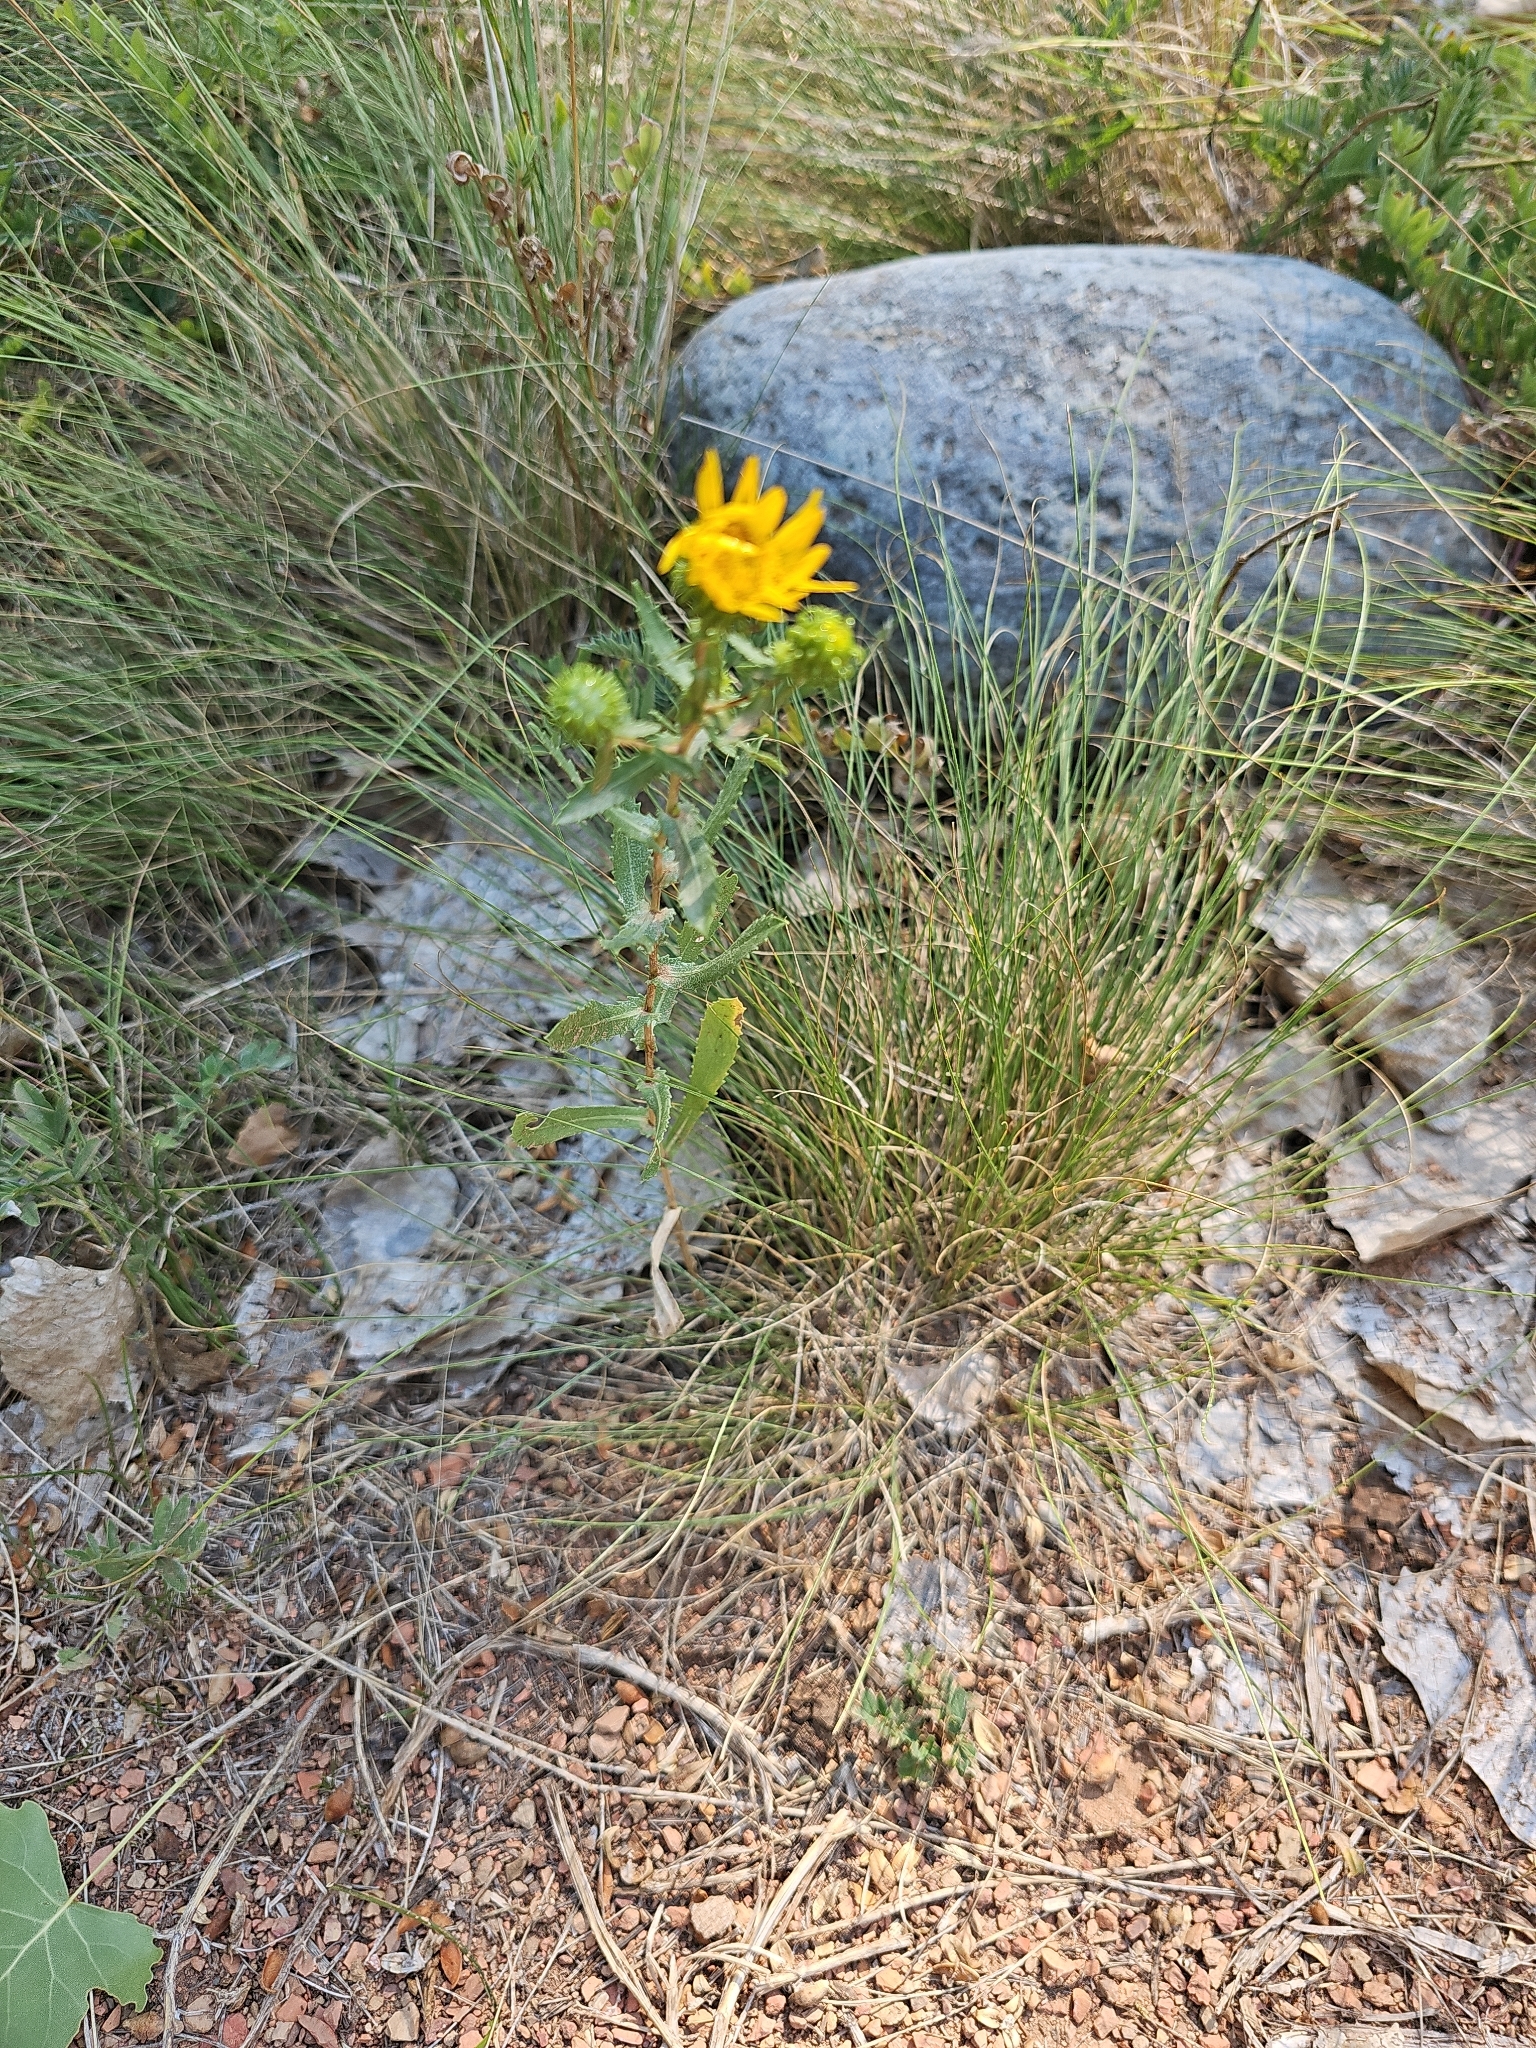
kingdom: Plantae
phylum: Tracheophyta
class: Magnoliopsida
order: Asterales
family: Asteraceae
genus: Grindelia
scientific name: Grindelia squarrosa
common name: Curly-cup gumweed
